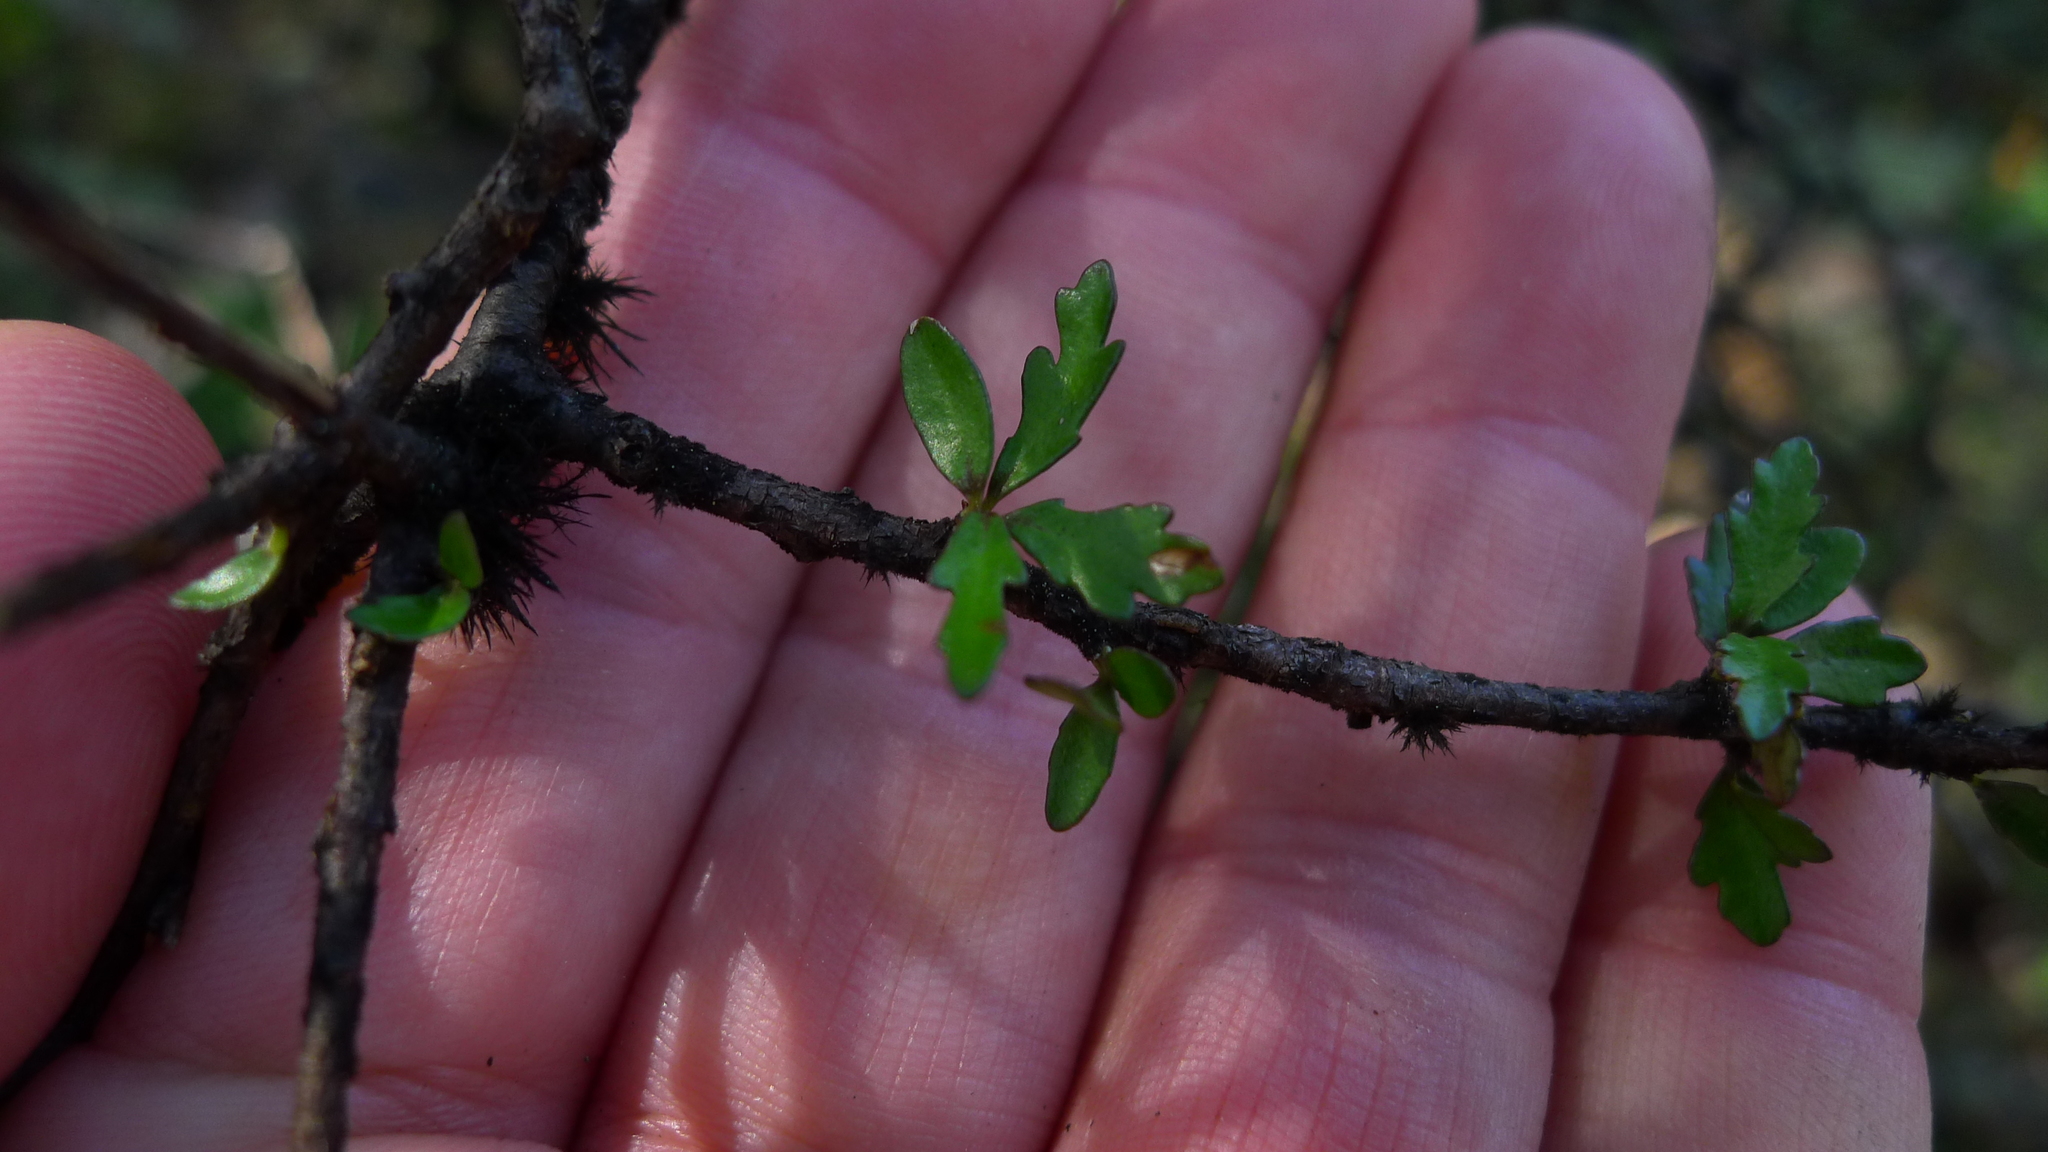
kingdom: Plantae
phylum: Tracheophyta
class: Magnoliopsida
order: Apiales
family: Pittosporaceae
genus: Pittosporum
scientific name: Pittosporum divaricatum
